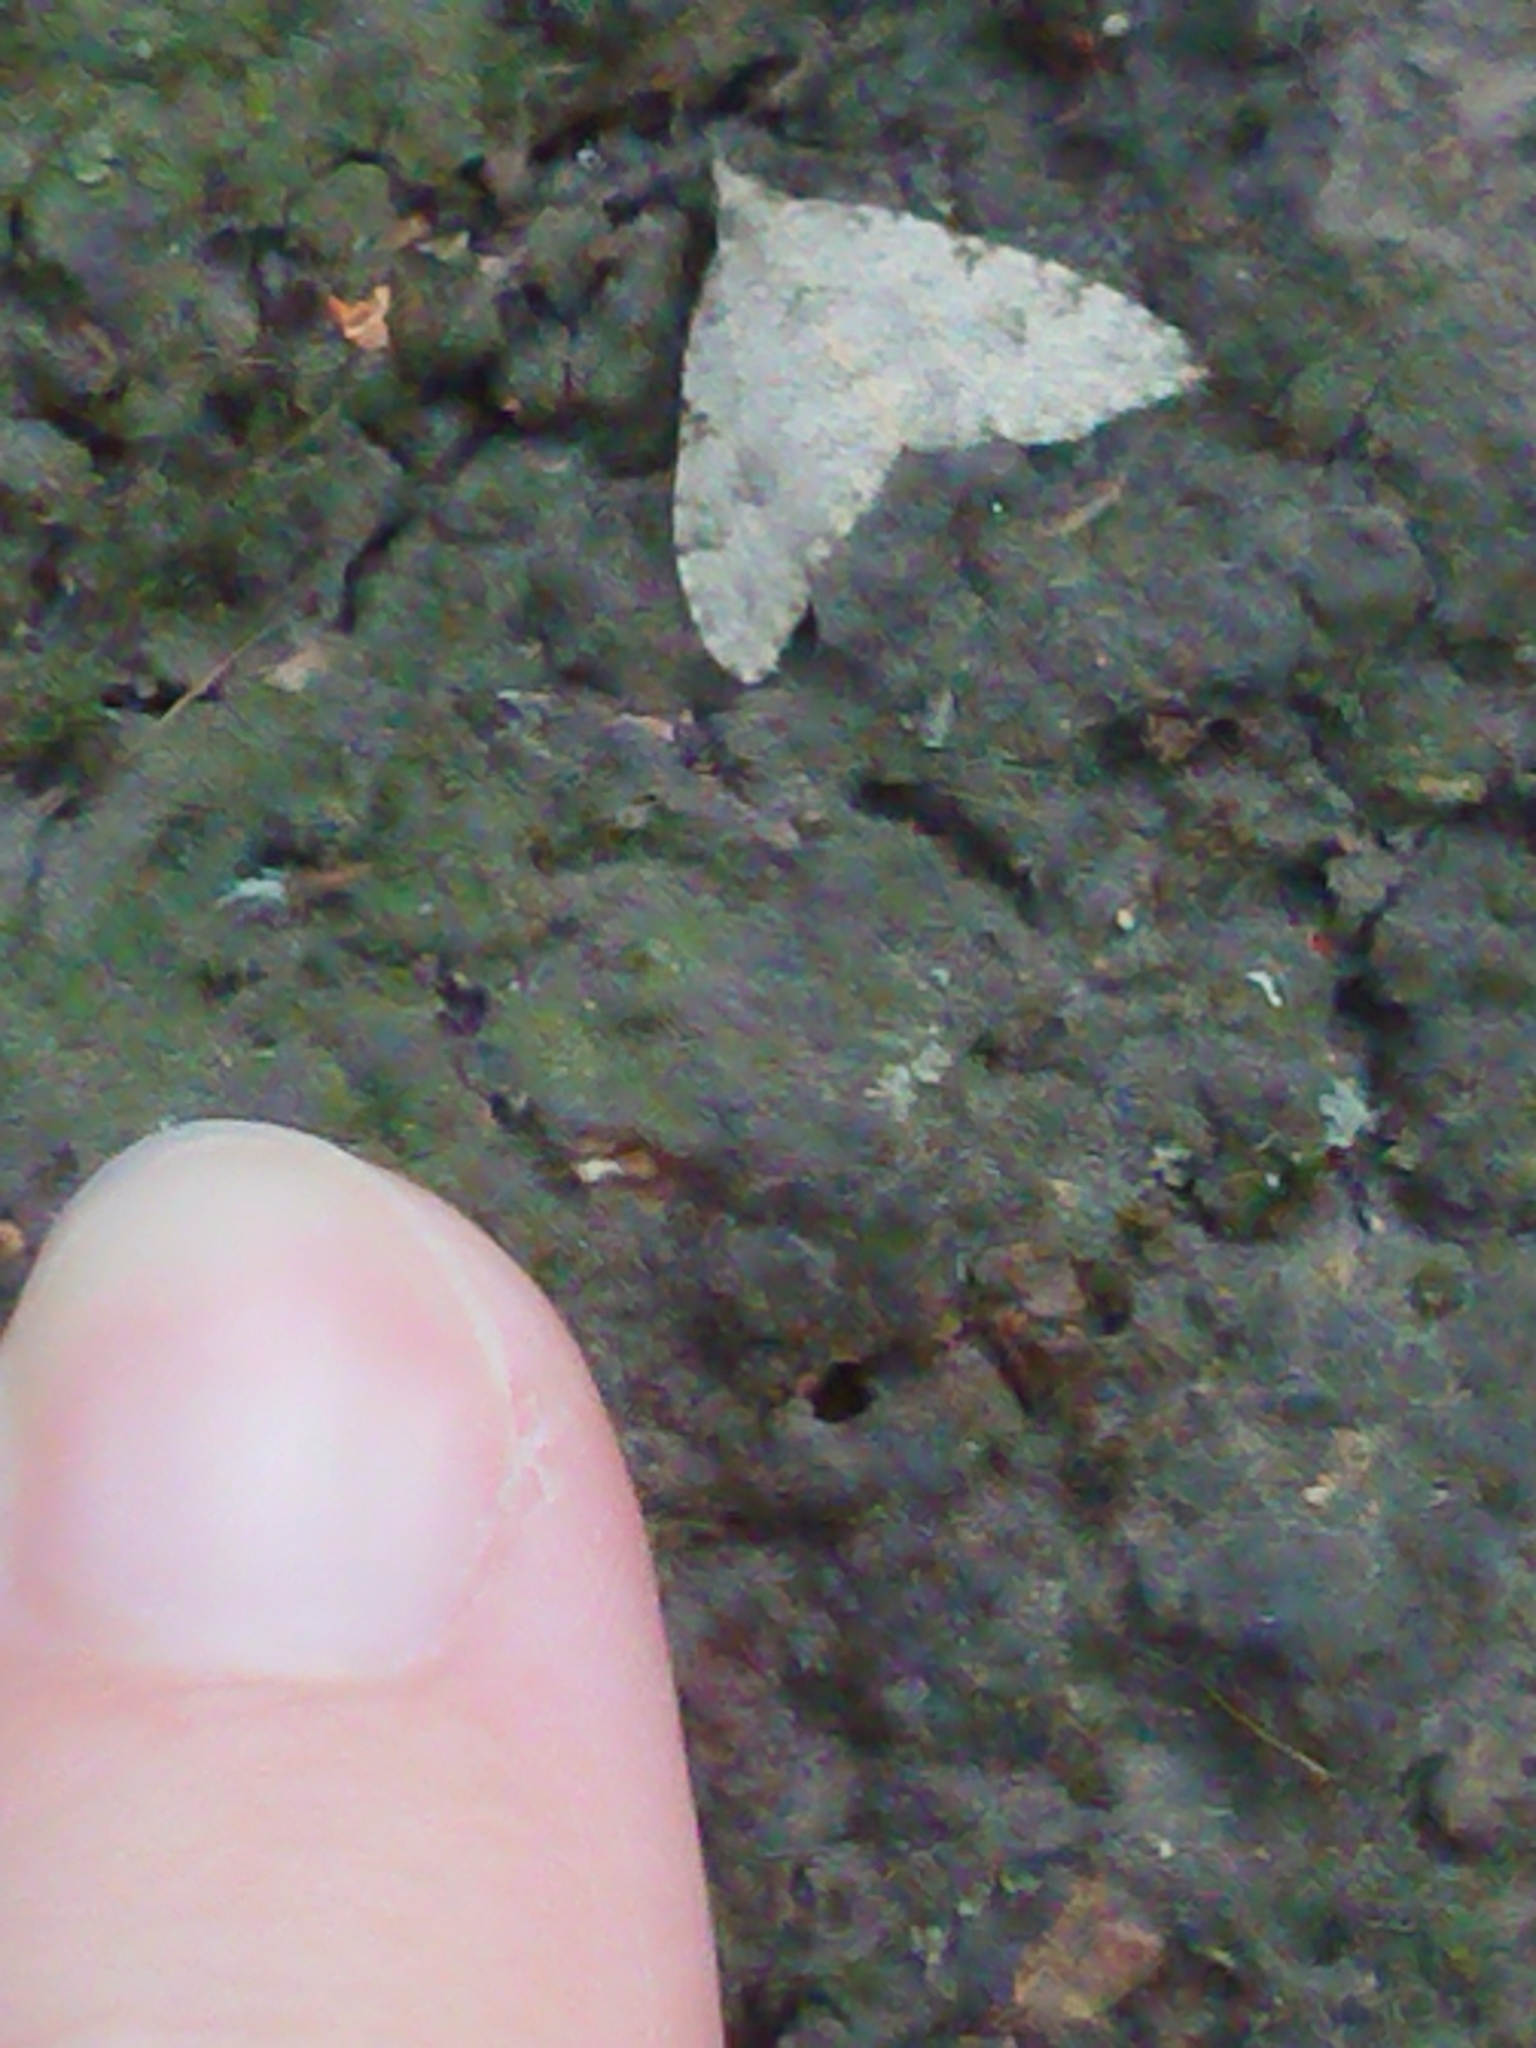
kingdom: Animalia
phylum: Arthropoda
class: Insecta
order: Lepidoptera
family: Geometridae
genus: Helastia
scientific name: Helastia cinerearia
